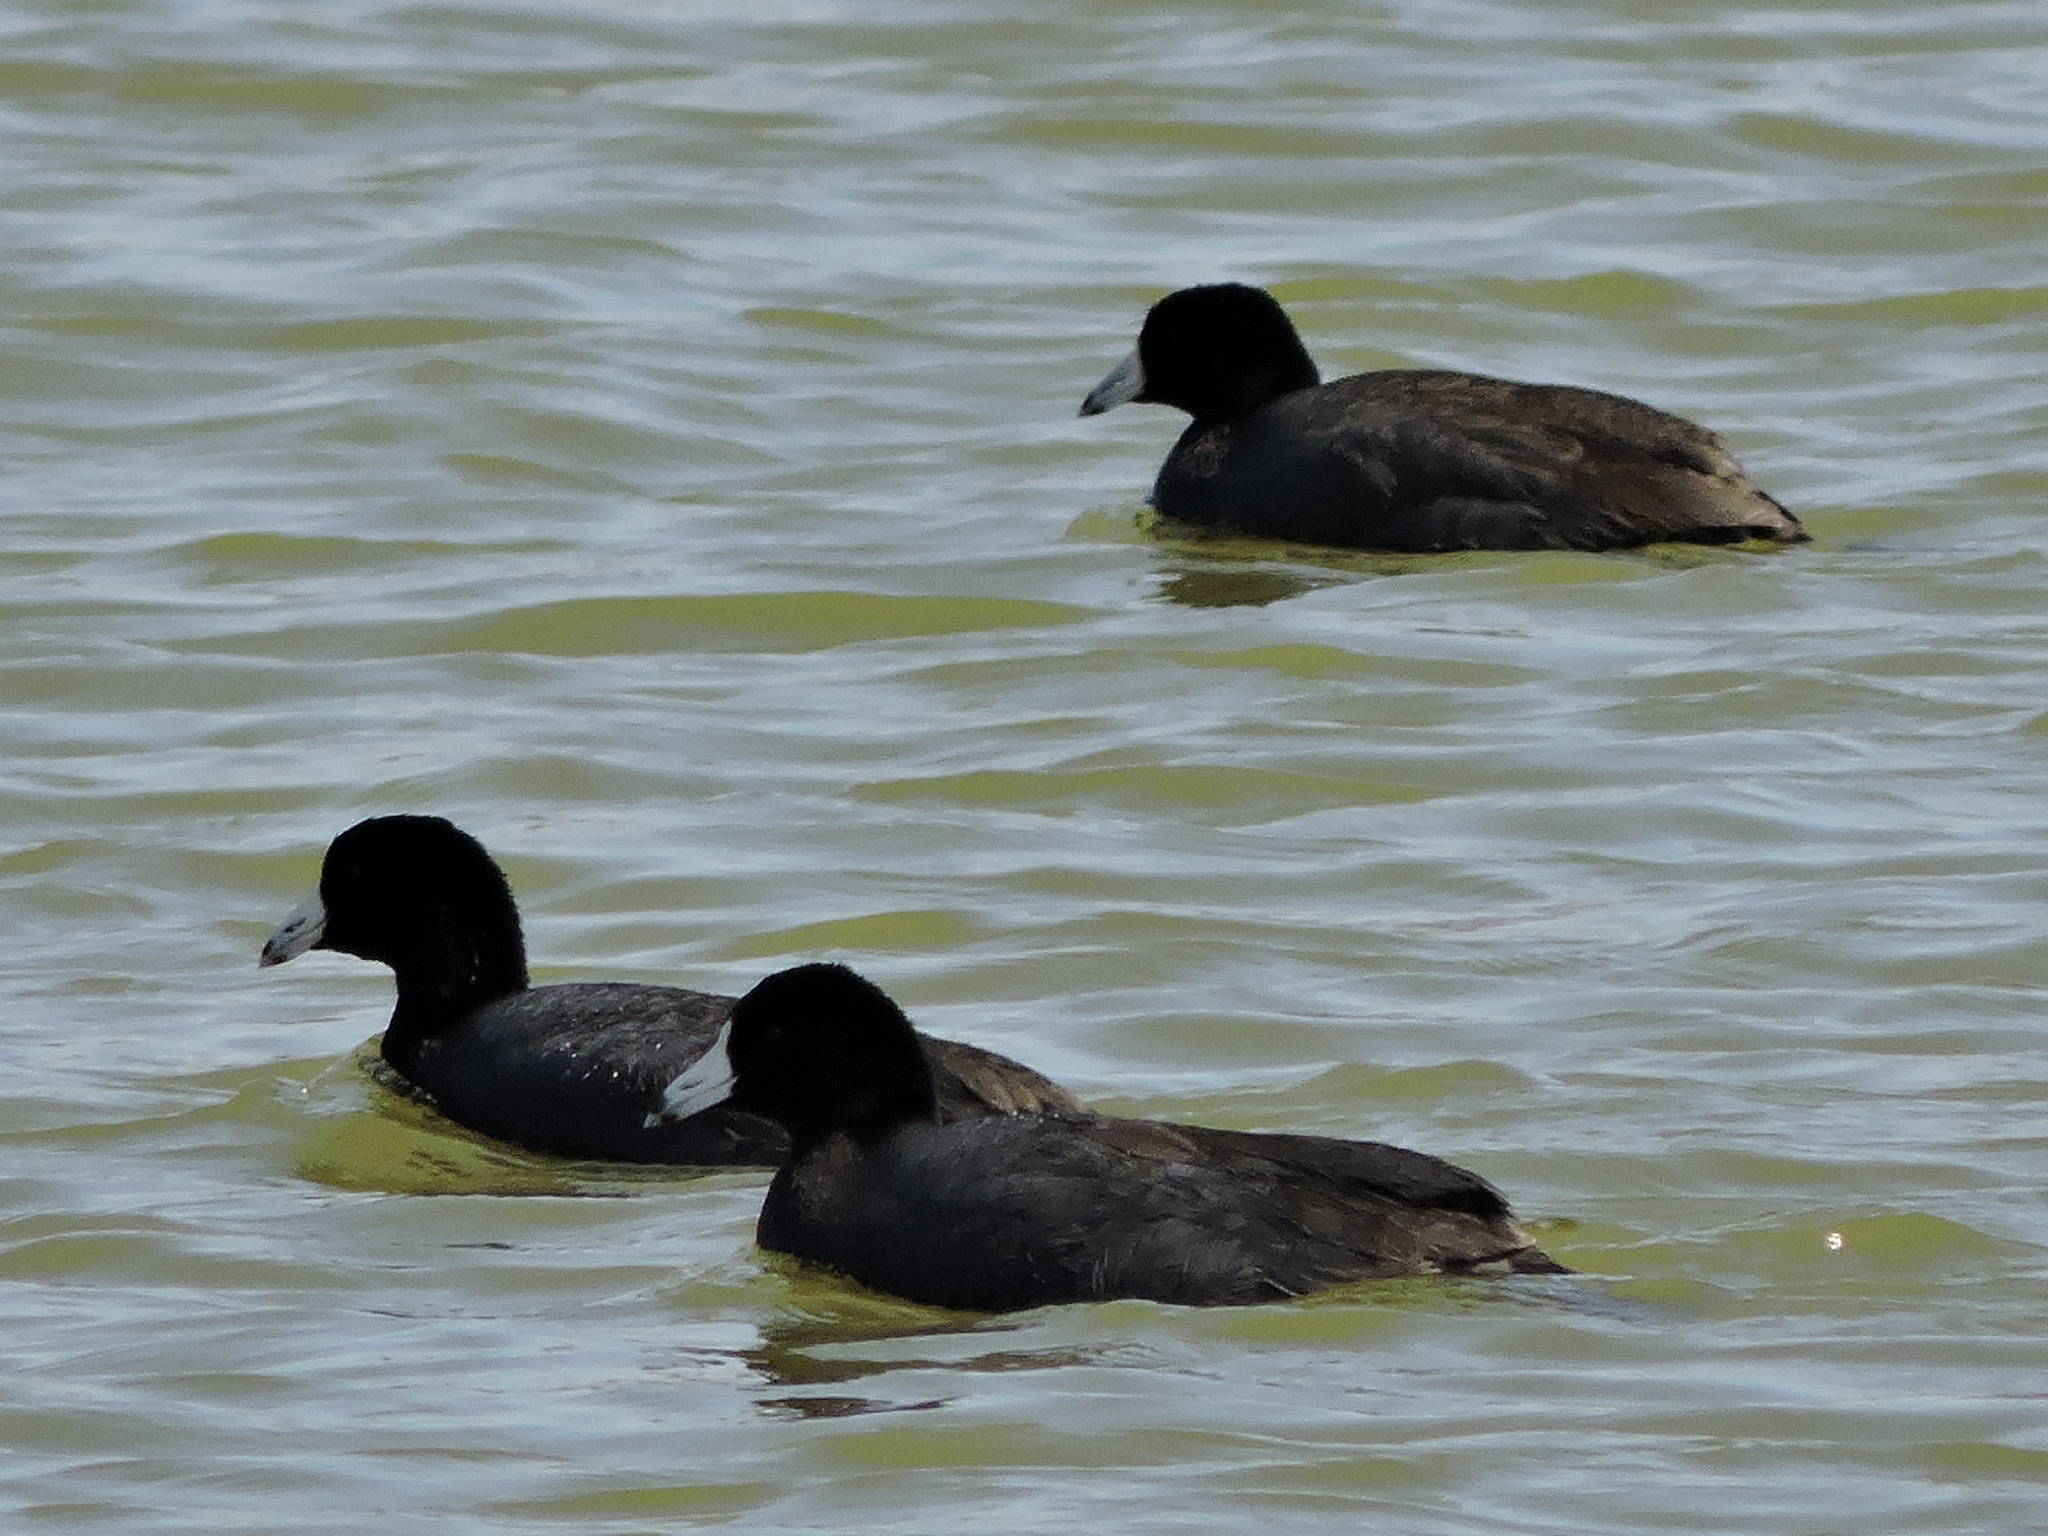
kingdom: Animalia
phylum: Chordata
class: Aves
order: Gruiformes
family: Rallidae
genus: Fulica
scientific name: Fulica americana
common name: American coot
